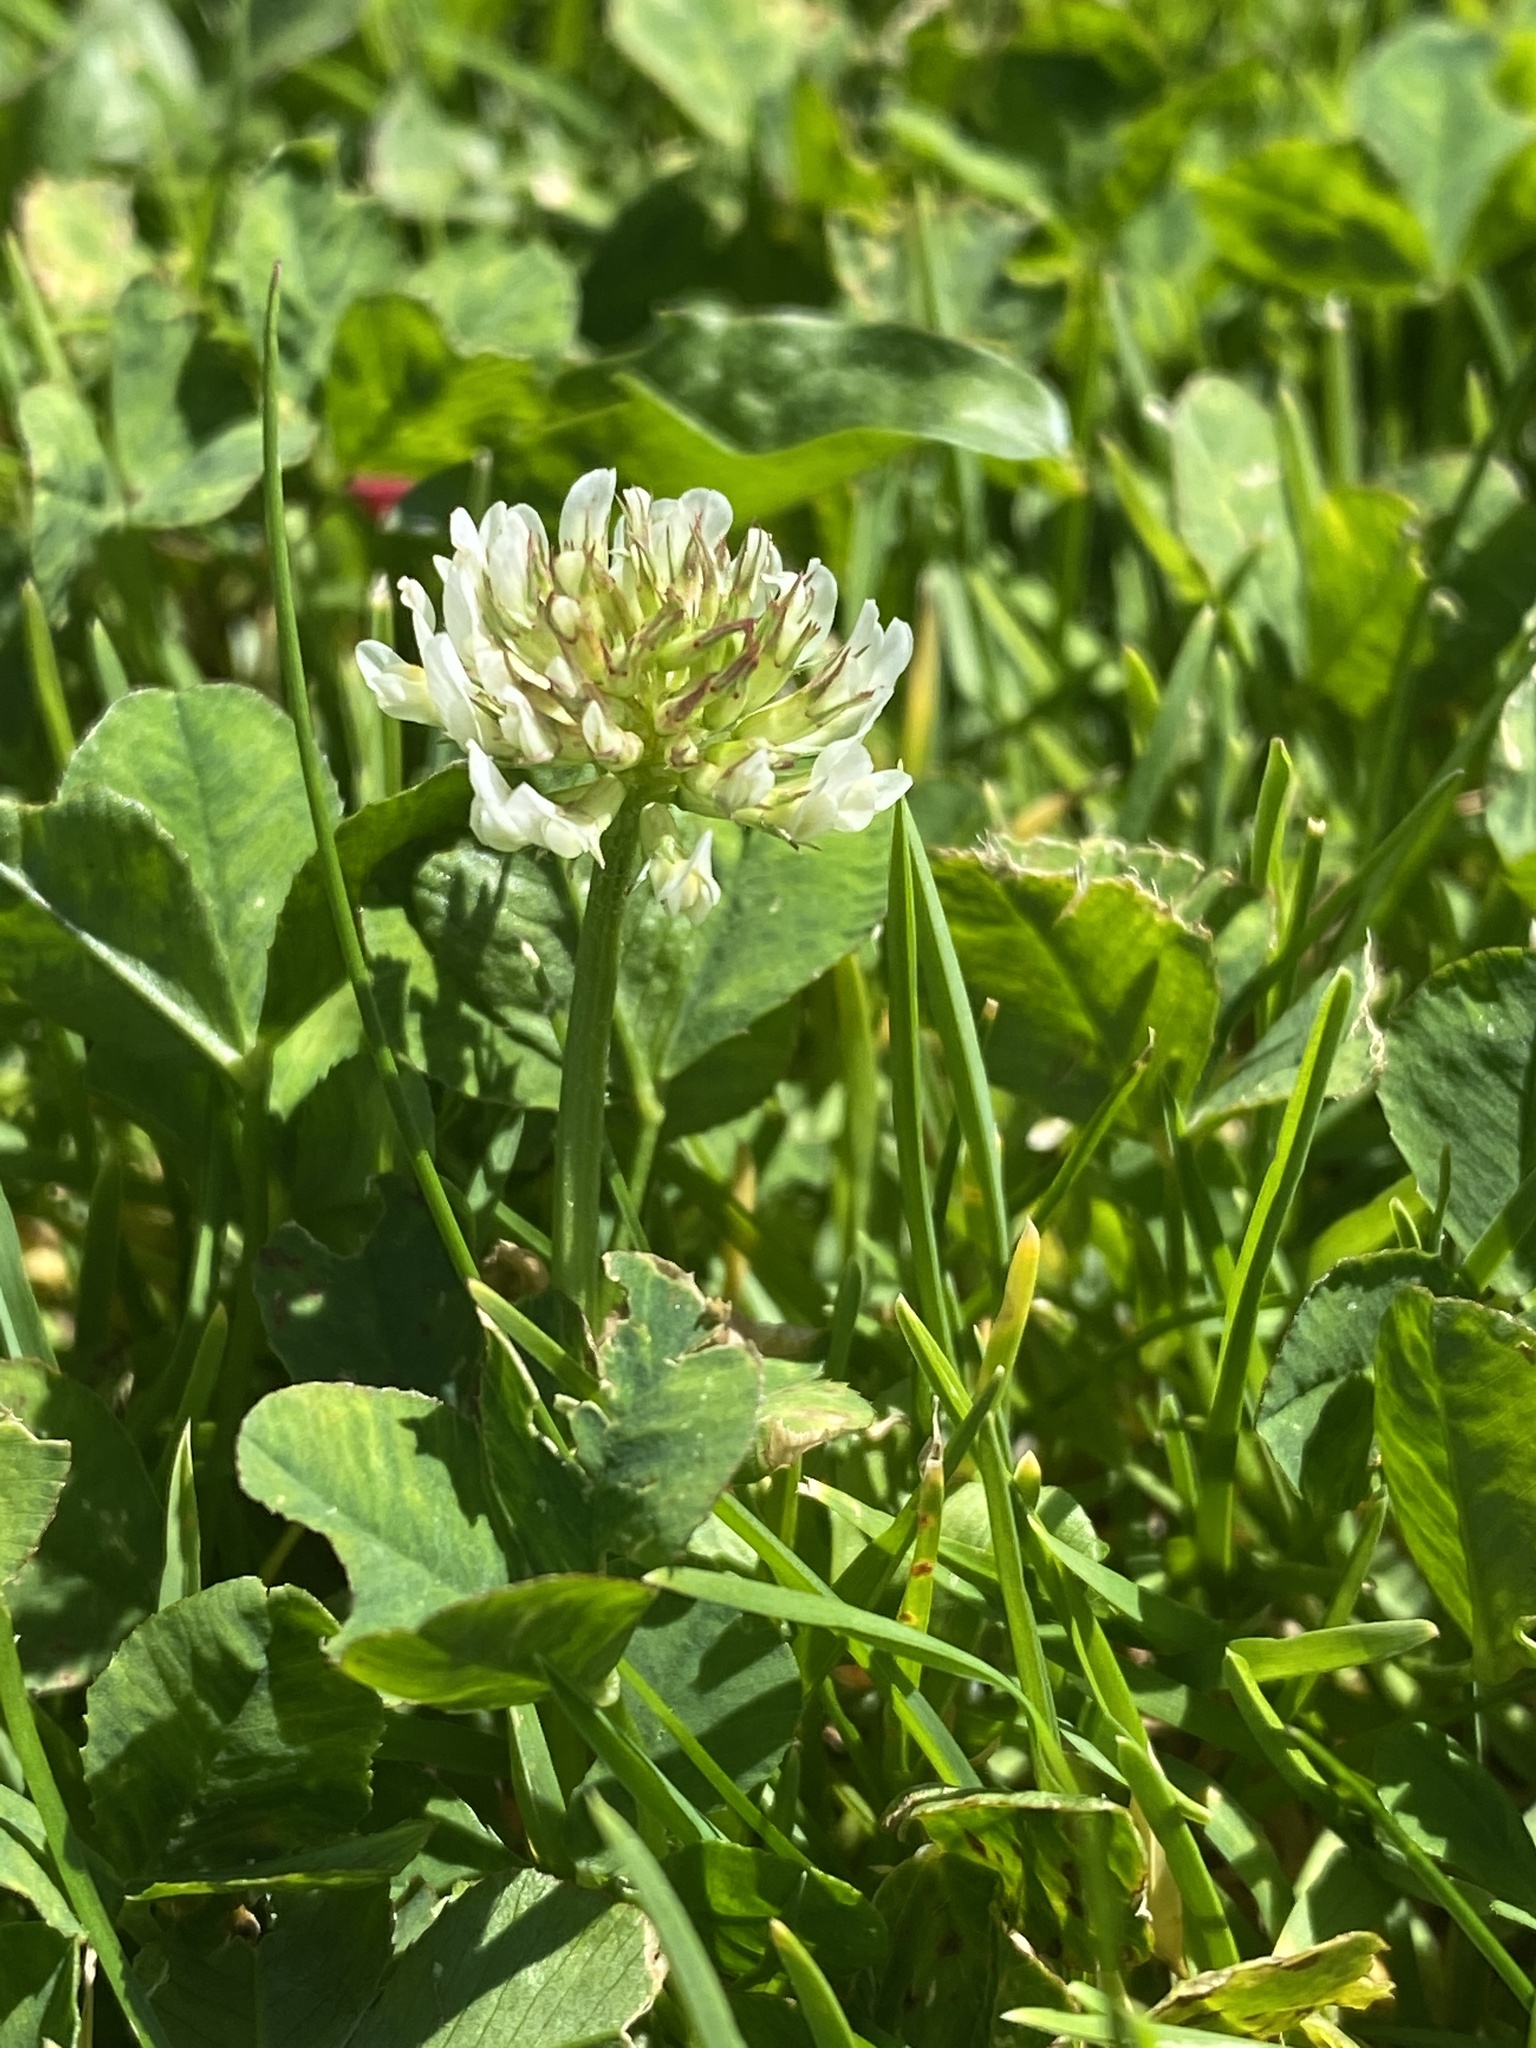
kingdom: Plantae
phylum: Tracheophyta
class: Magnoliopsida
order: Fabales
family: Fabaceae
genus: Trifolium
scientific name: Trifolium repens
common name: White clover
